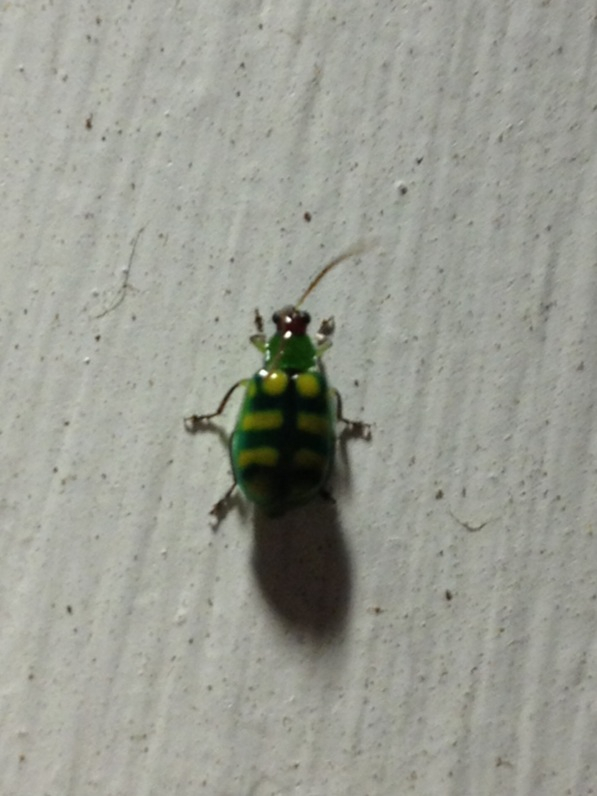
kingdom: Animalia
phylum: Arthropoda
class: Insecta
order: Coleoptera
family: Chrysomelidae
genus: Diabrotica
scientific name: Diabrotica balteata
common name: Leaf beetle
